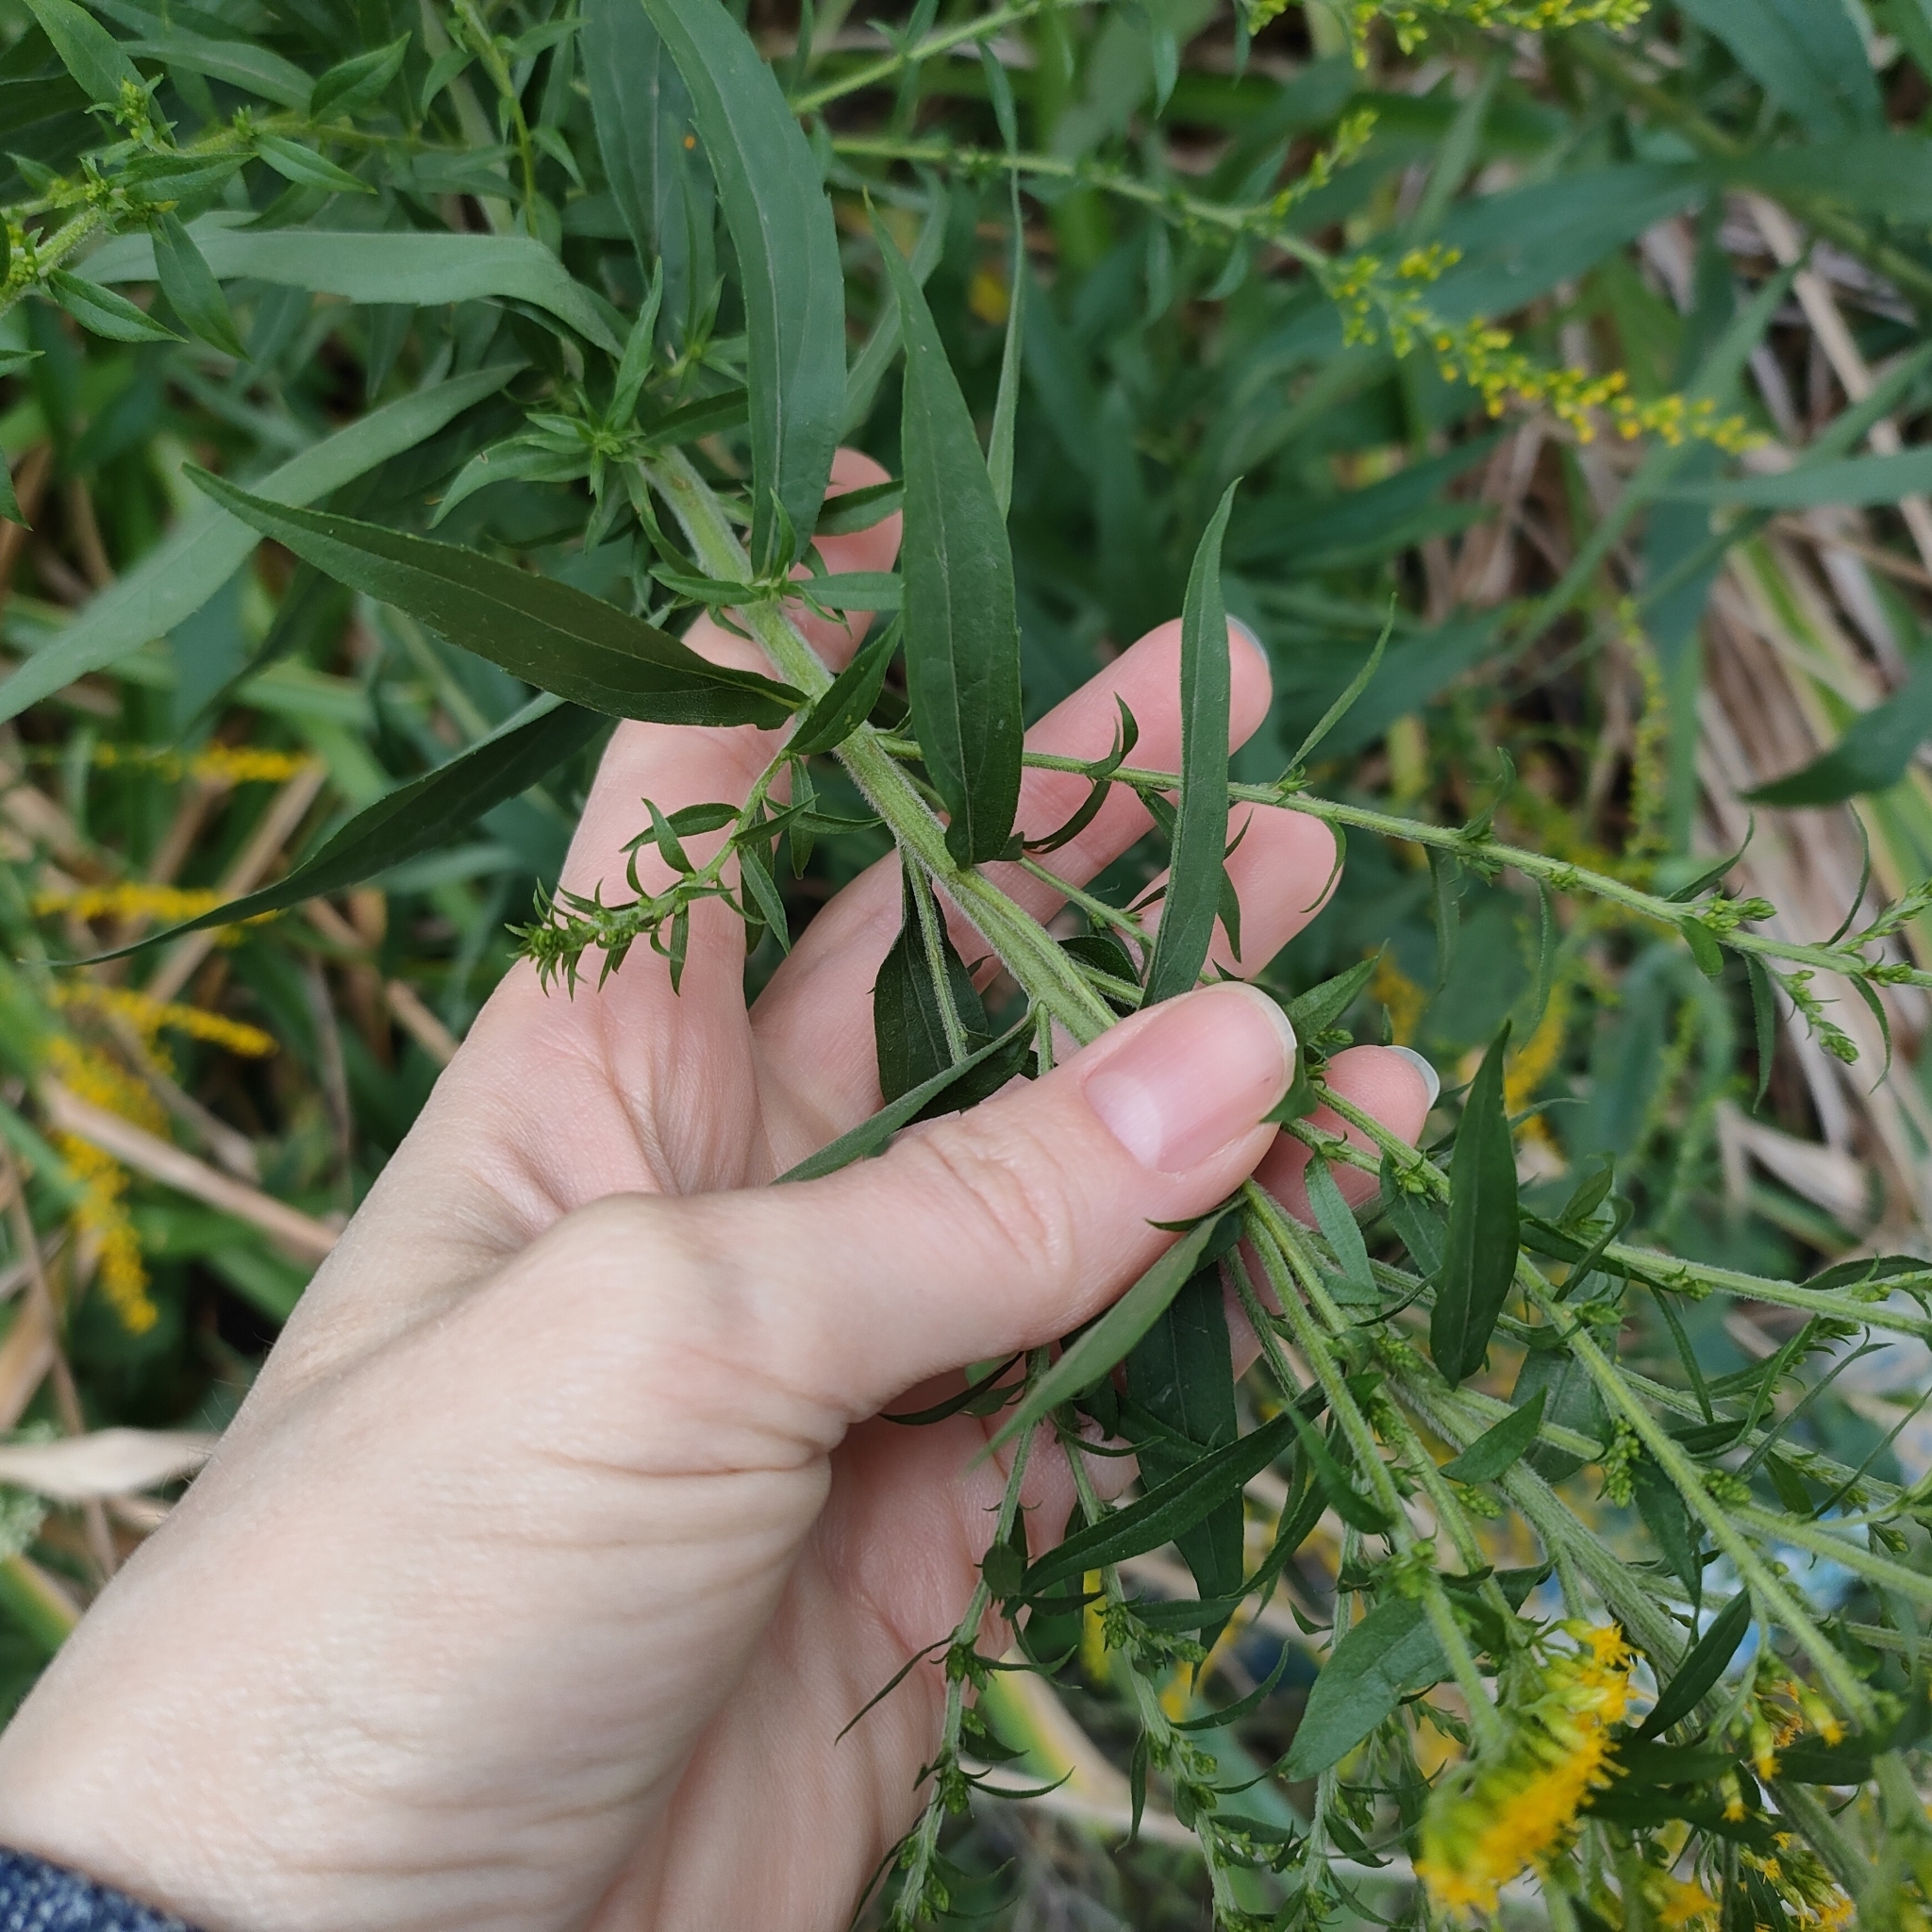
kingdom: Plantae
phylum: Tracheophyta
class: Magnoliopsida
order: Asterales
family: Asteraceae
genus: Solidago
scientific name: Solidago canadensis
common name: Canada goldenrod
